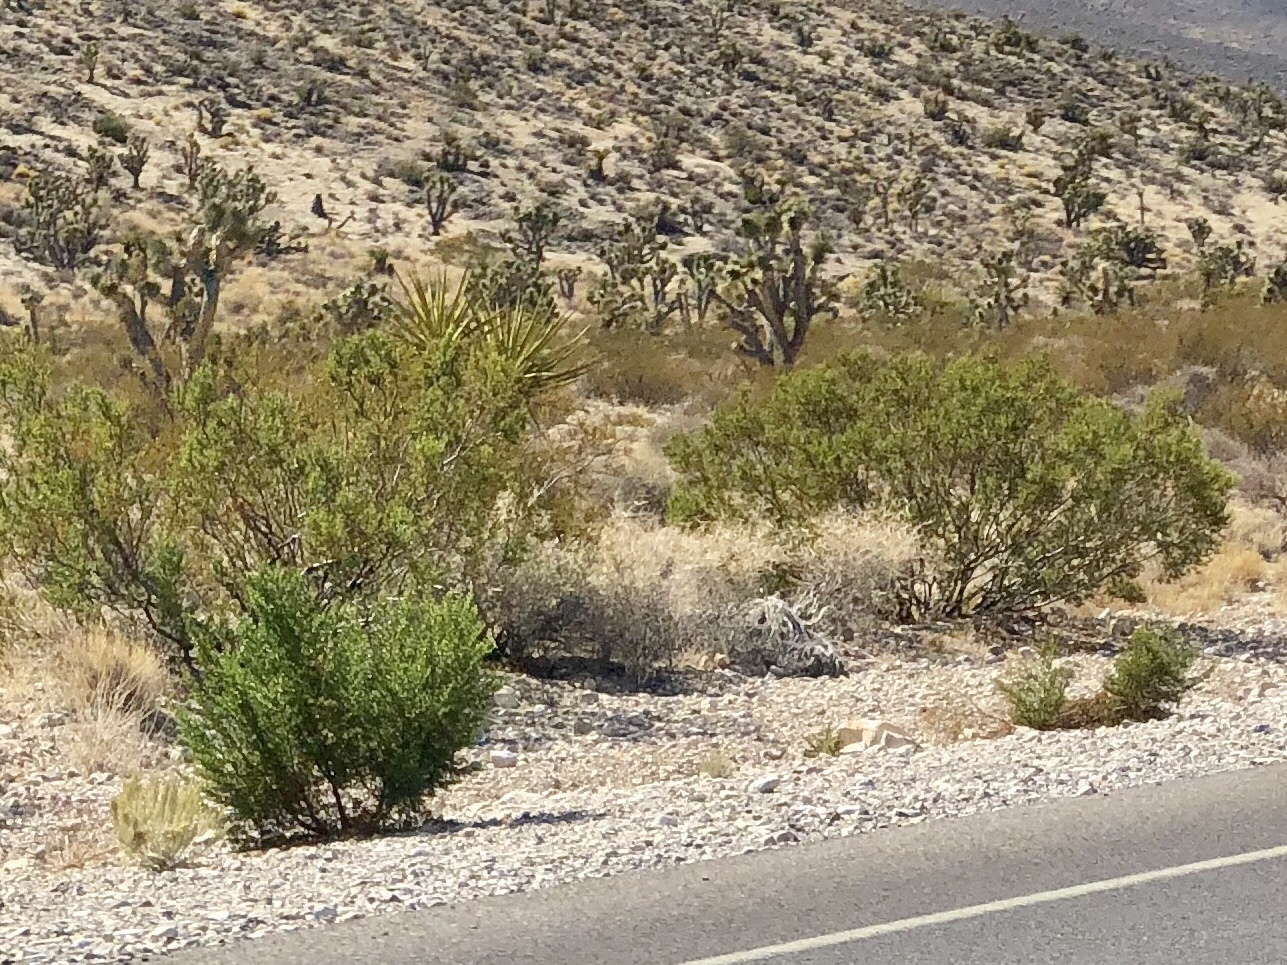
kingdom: Plantae
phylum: Tracheophyta
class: Magnoliopsida
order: Zygophyllales
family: Zygophyllaceae
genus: Larrea
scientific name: Larrea tridentata
